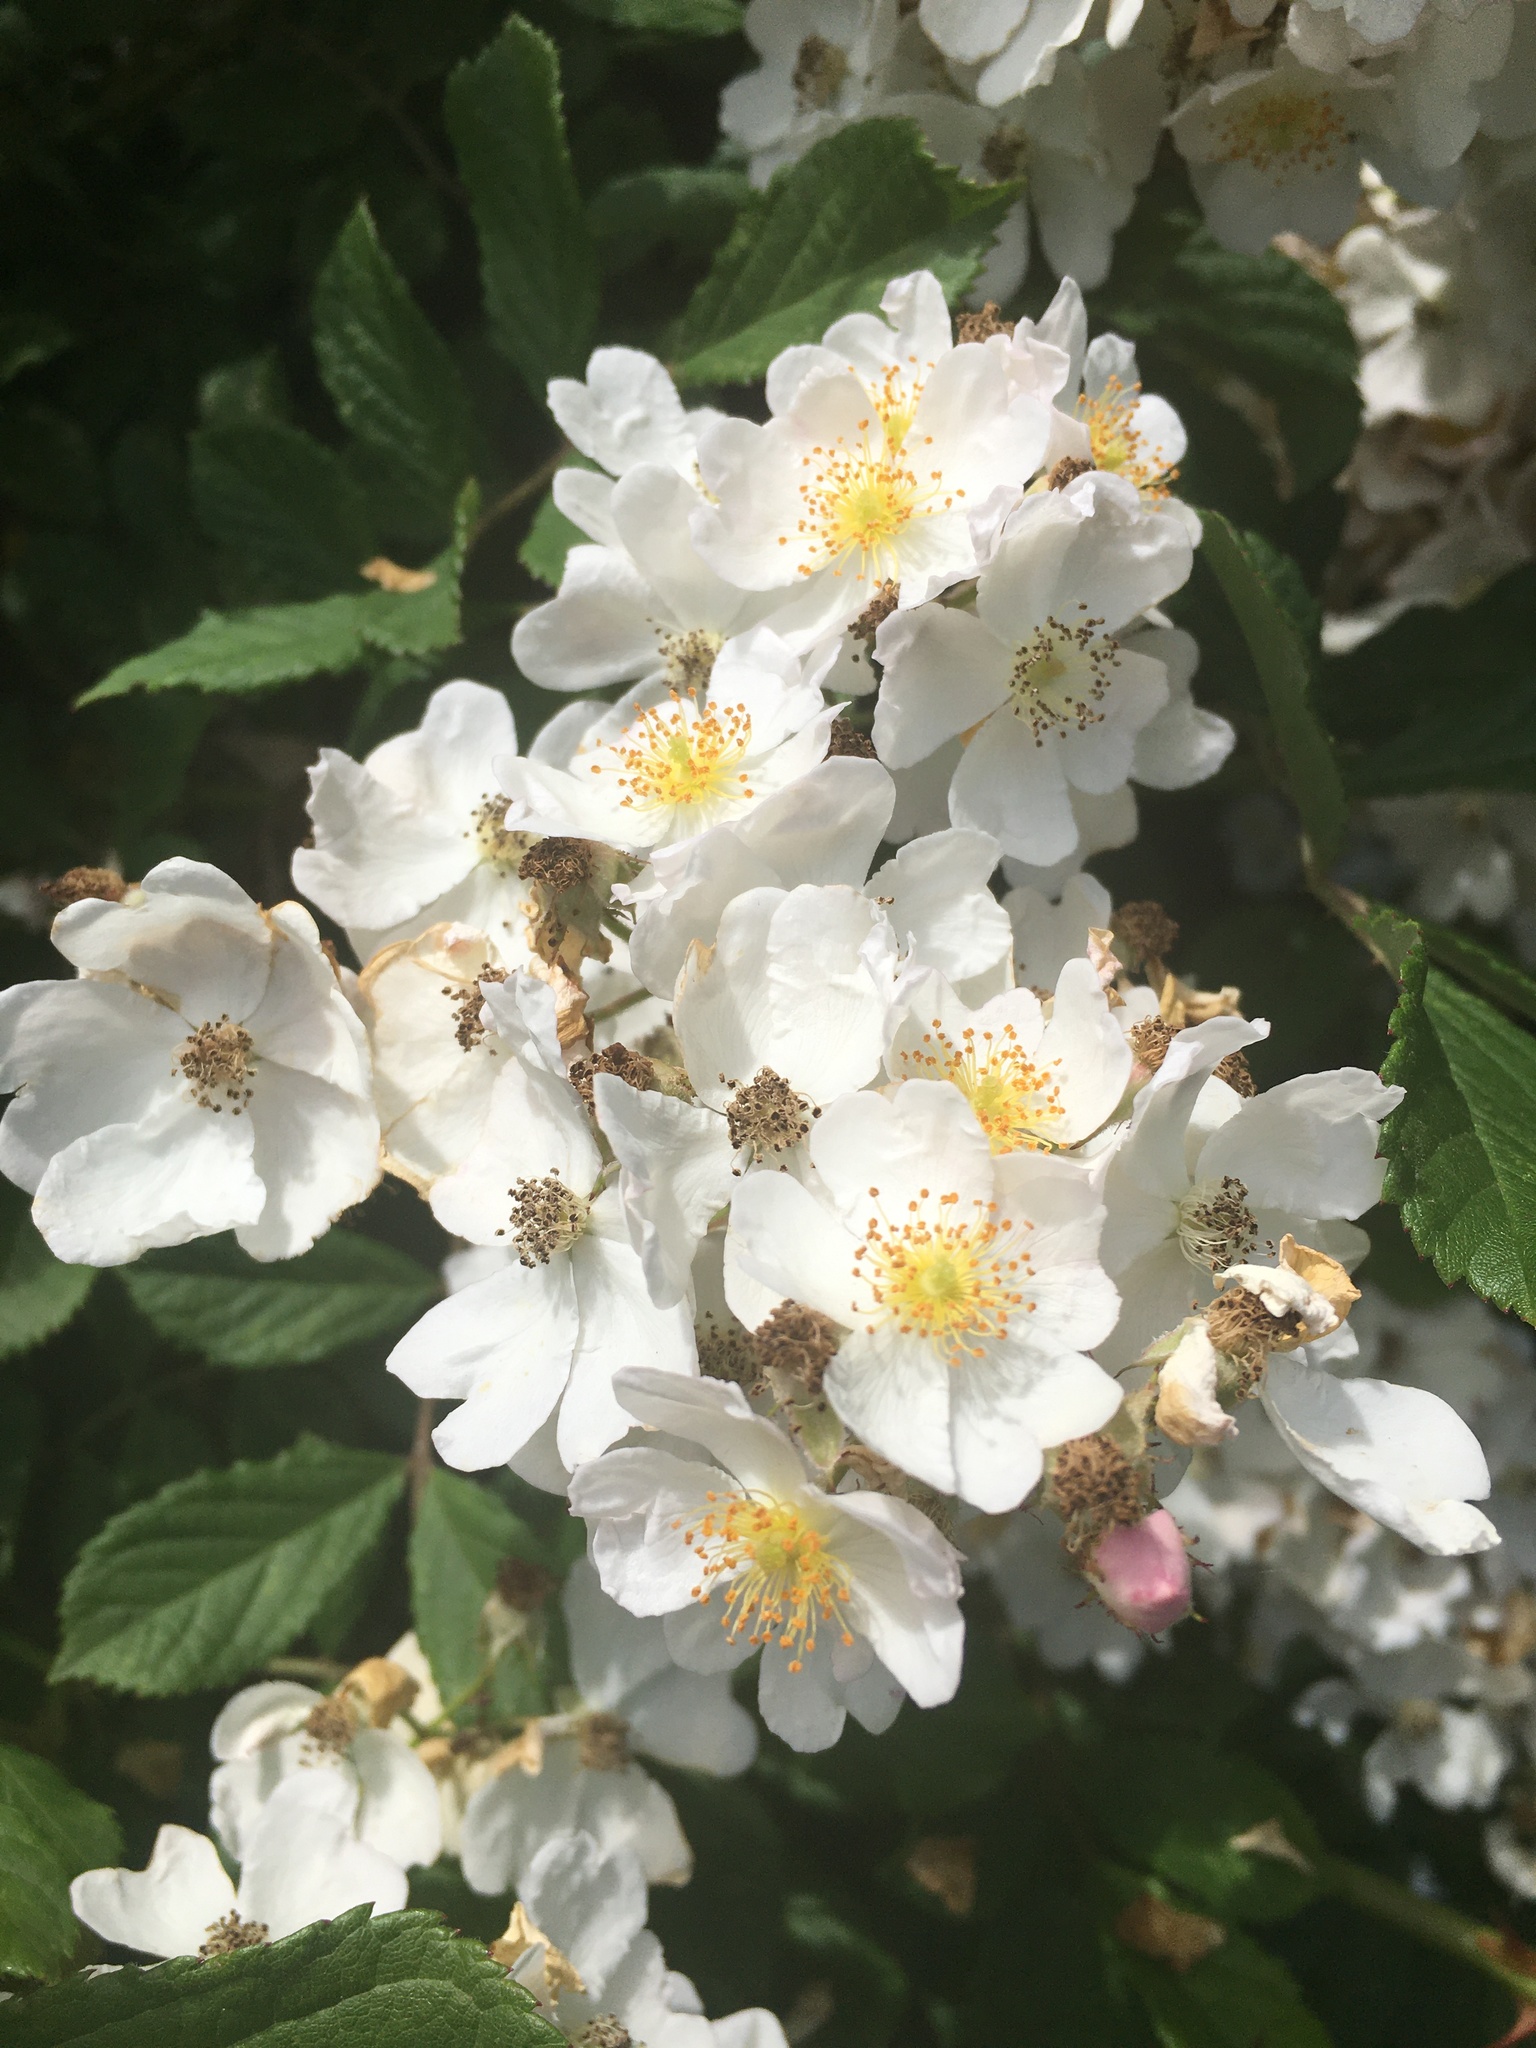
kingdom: Plantae
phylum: Tracheophyta
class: Magnoliopsida
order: Rosales
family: Rosaceae
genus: Rosa
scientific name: Rosa multiflora
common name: Multiflora rose
